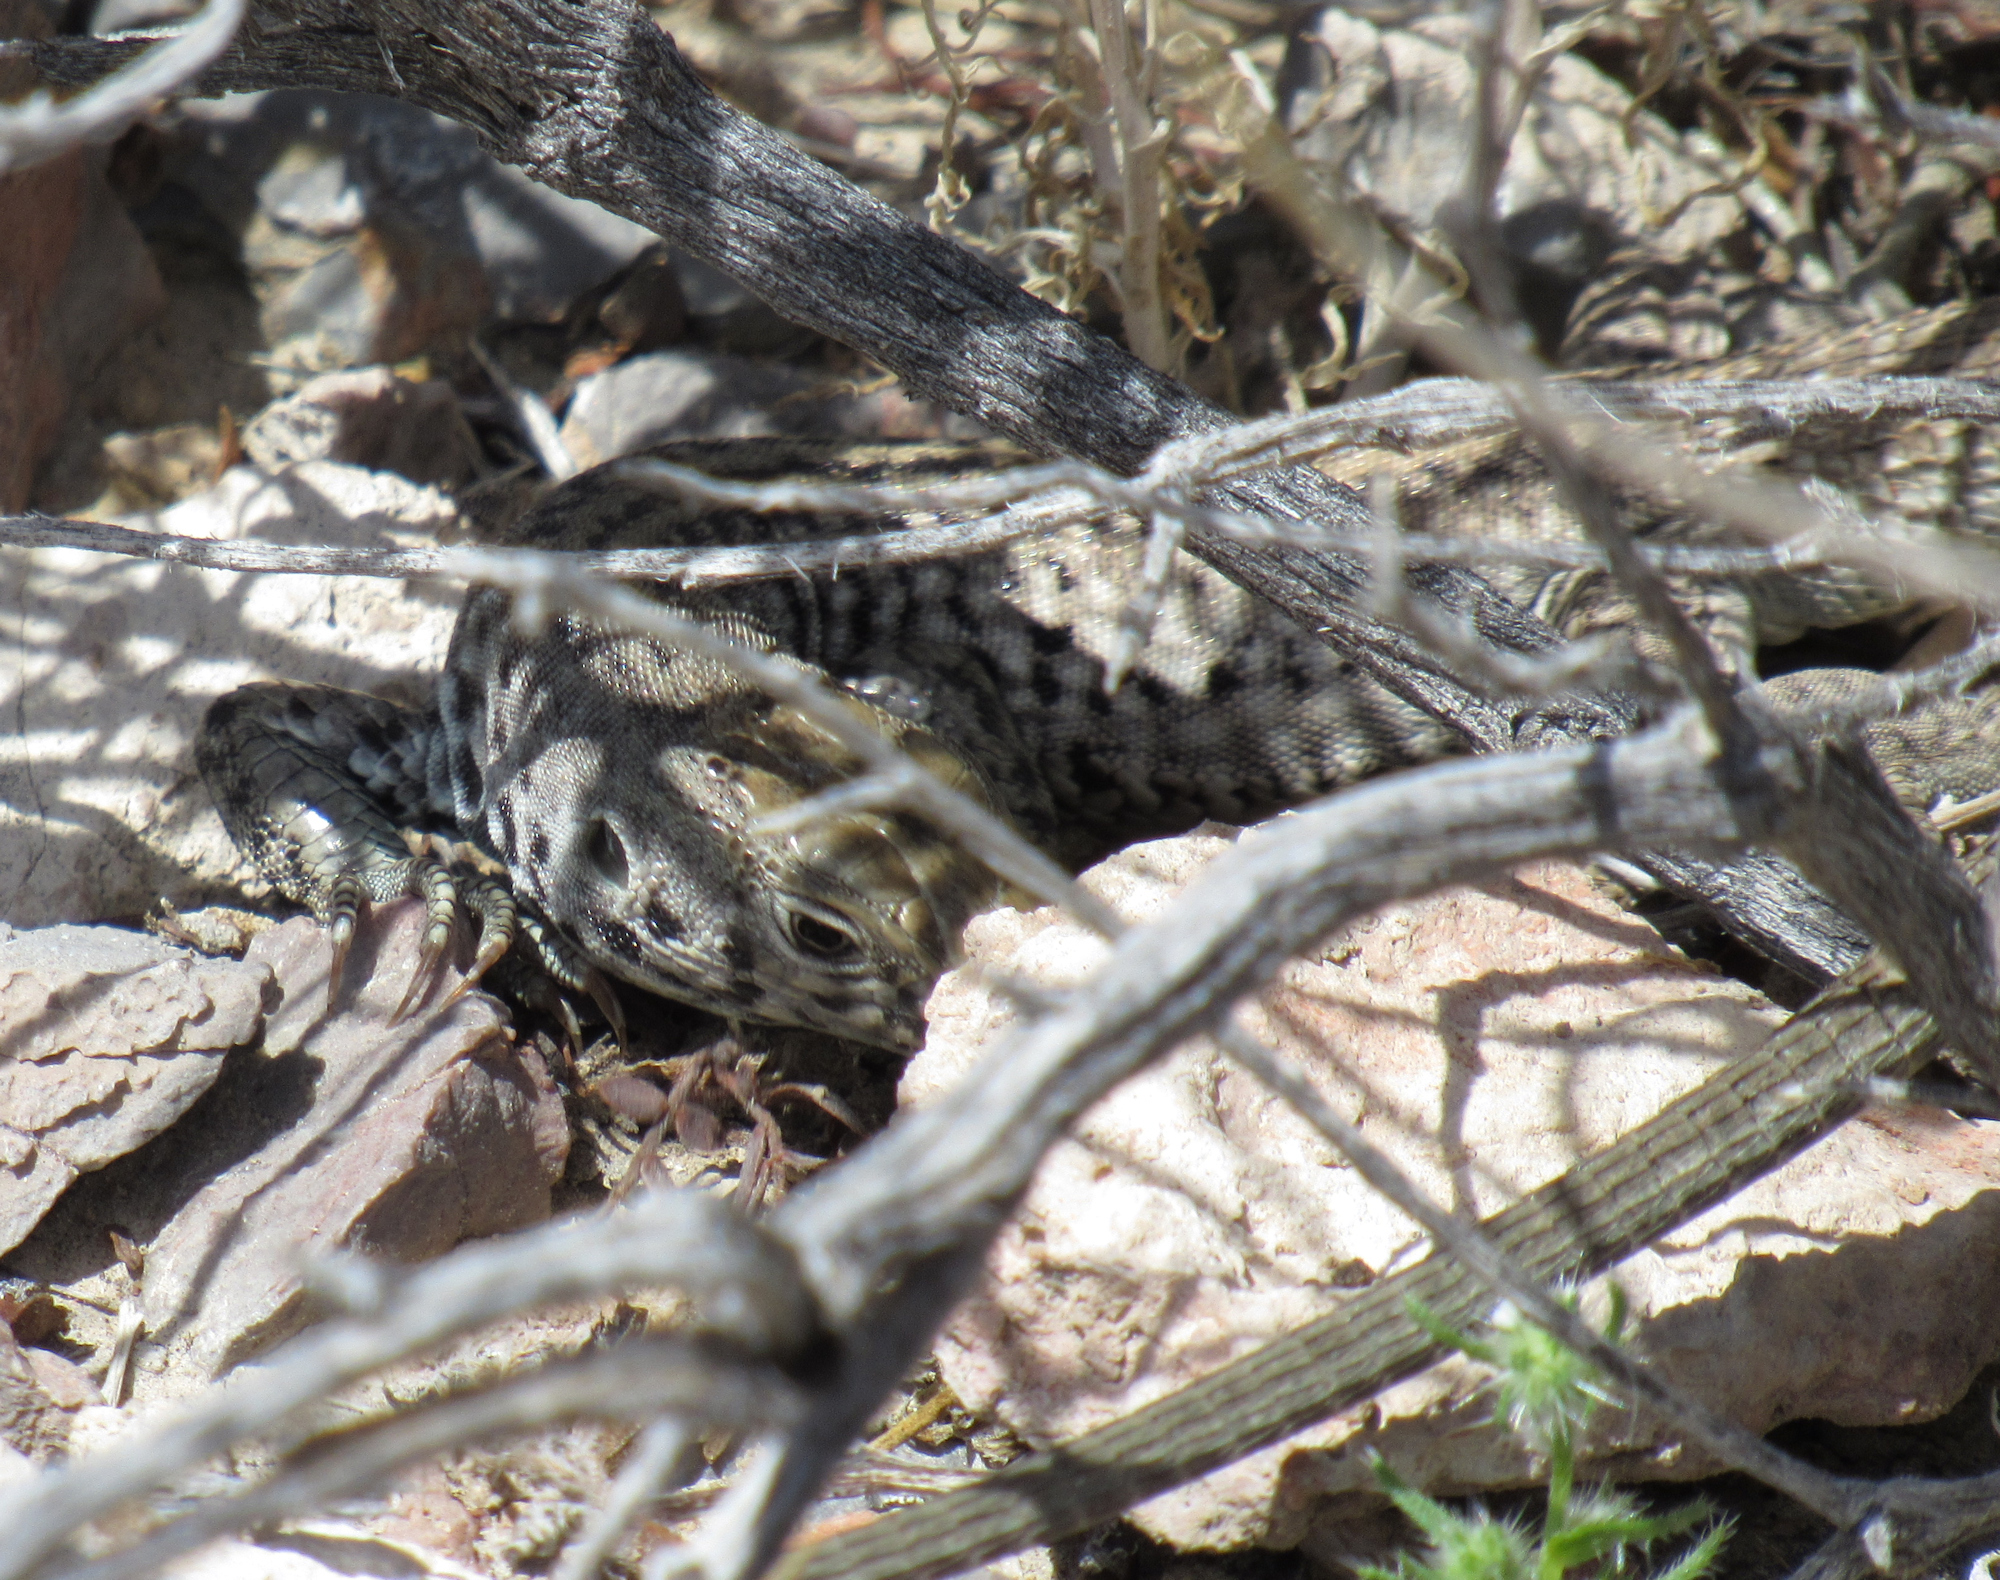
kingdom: Animalia
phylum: Chordata
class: Squamata
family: Teiidae
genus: Aspidoscelis
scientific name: Aspidoscelis tigris
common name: Tiger whiptail
